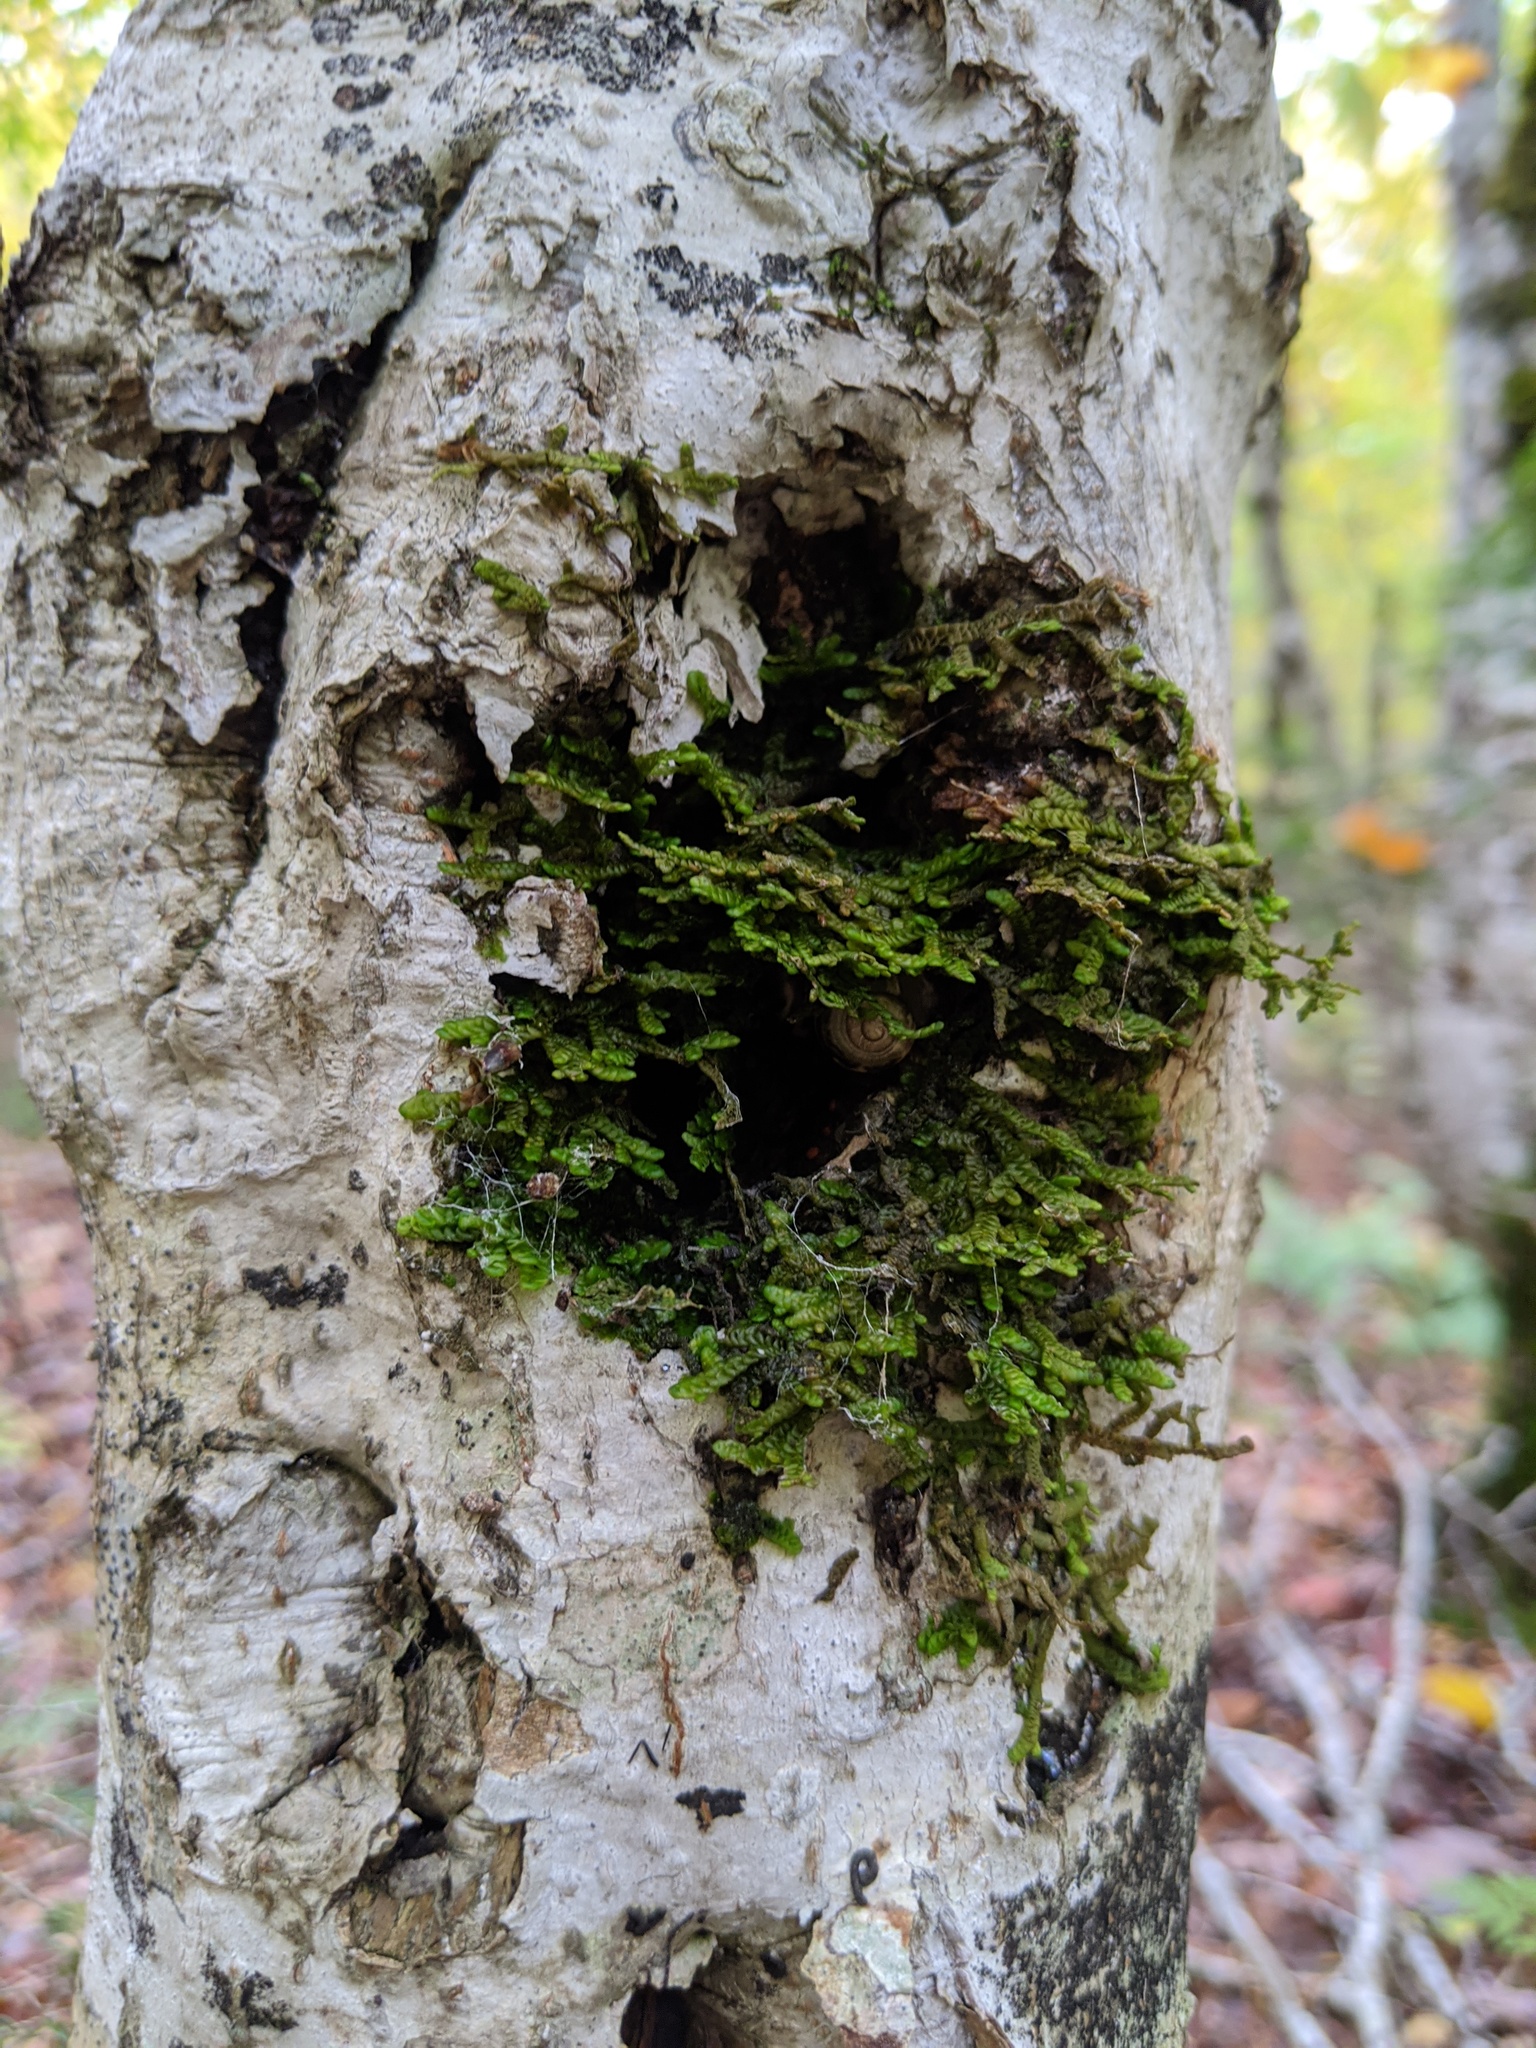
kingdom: Plantae
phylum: Marchantiophyta
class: Jungermanniopsida
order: Porellales
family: Porellaceae
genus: Porella
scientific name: Porella platyphylla
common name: Wall scalewort
